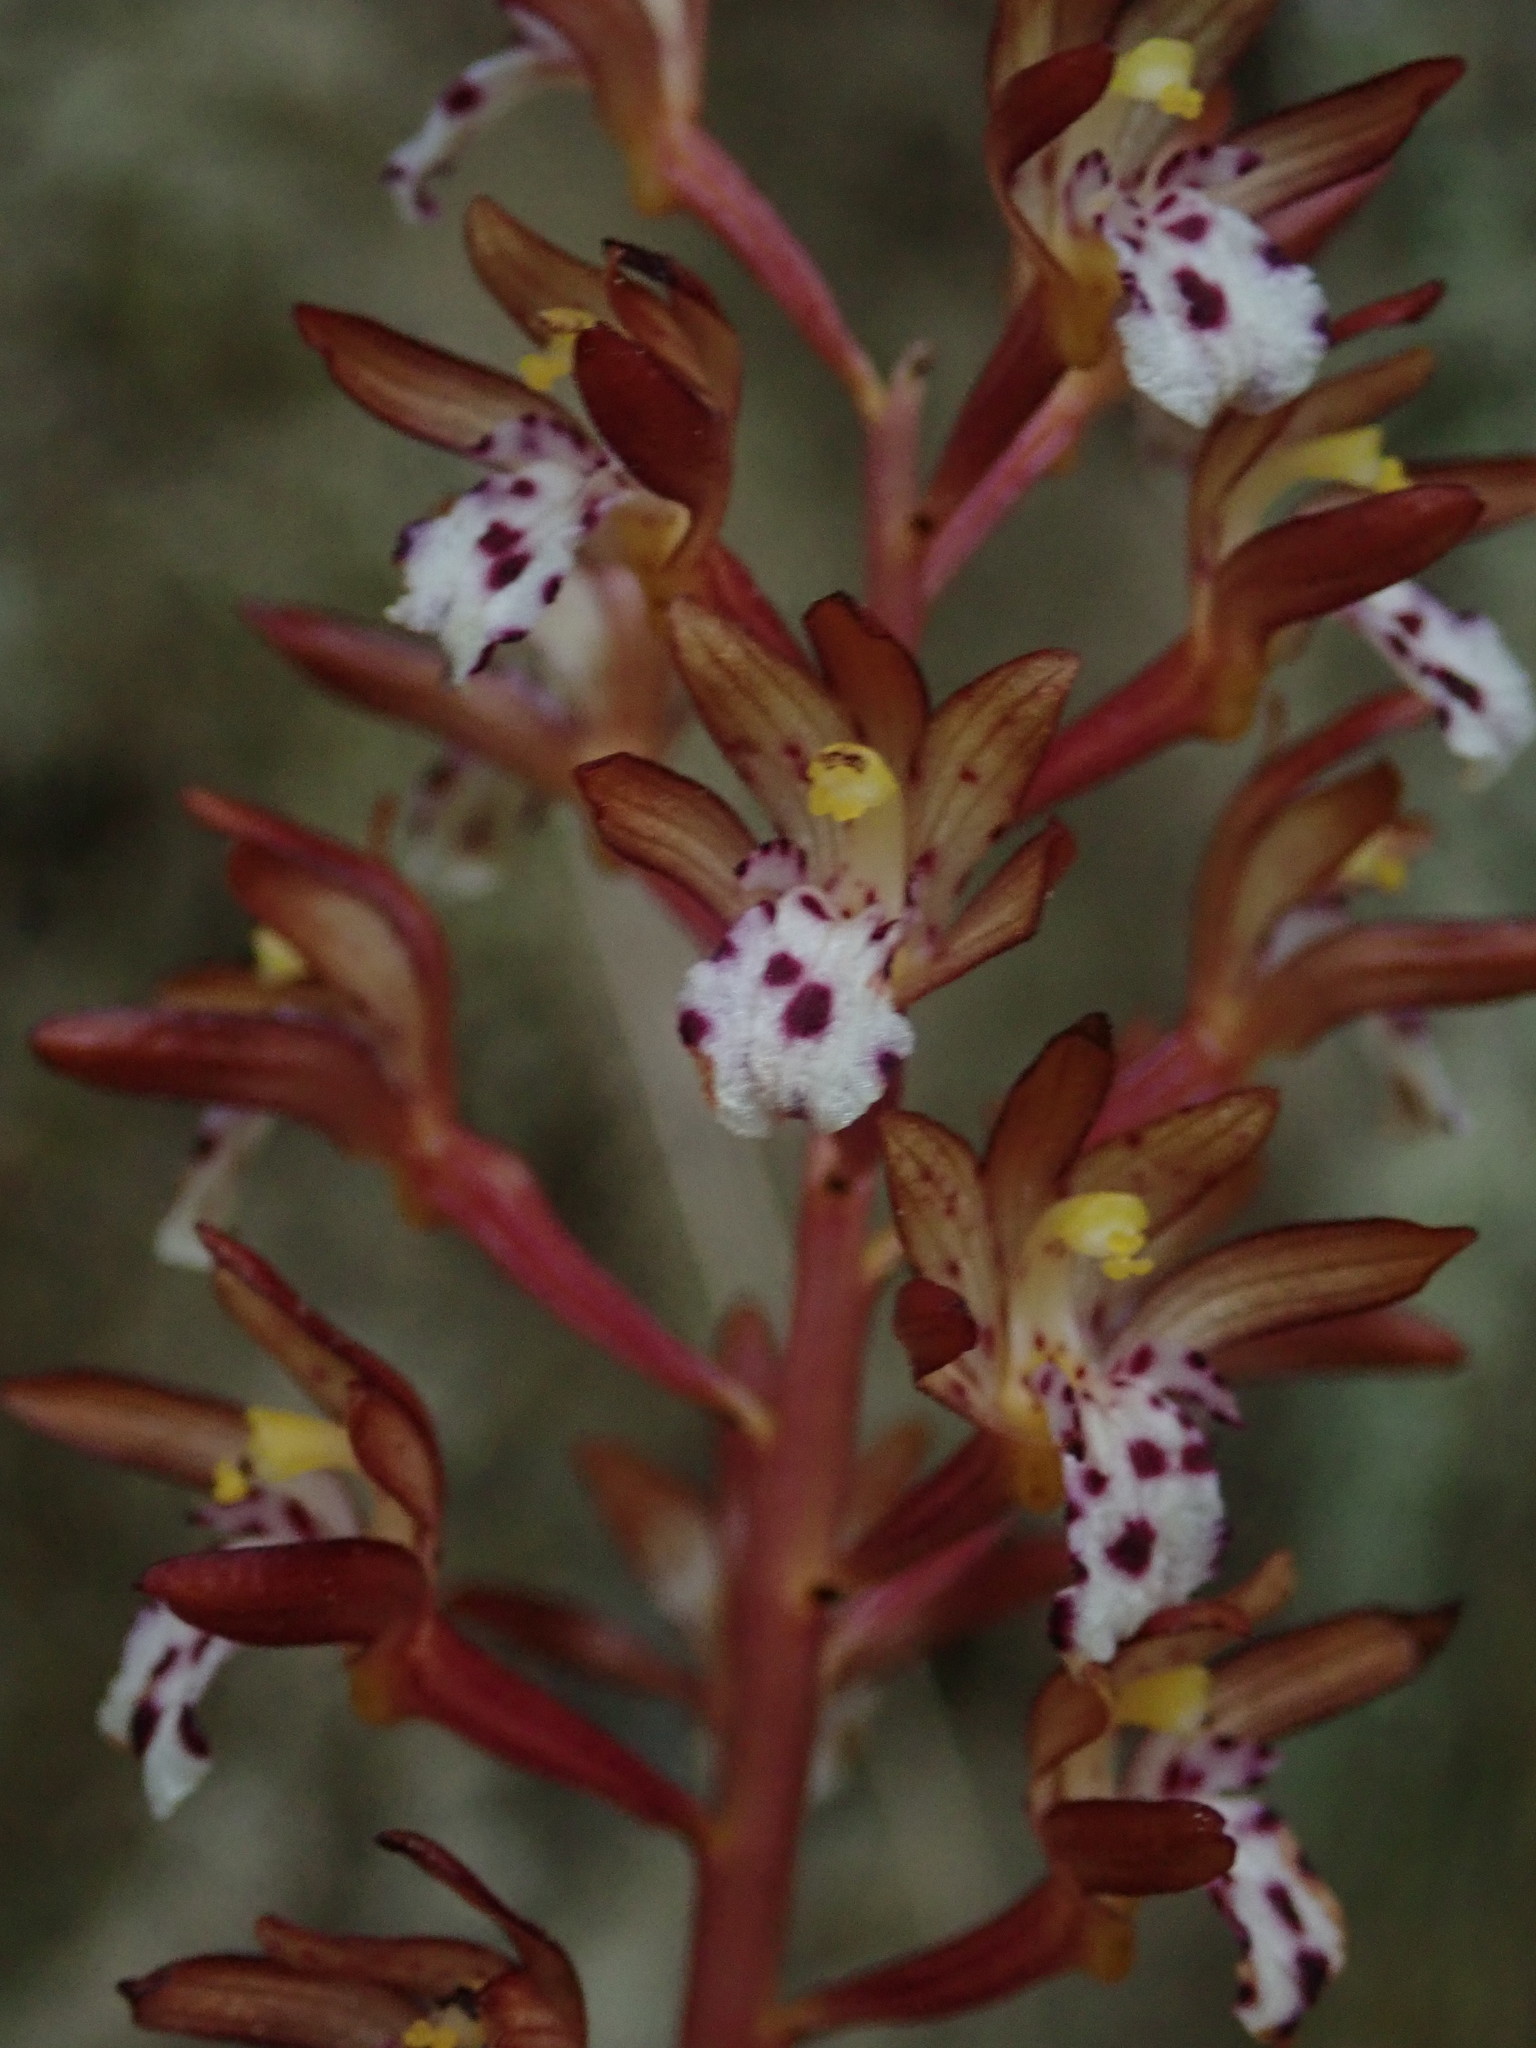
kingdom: Plantae
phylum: Tracheophyta
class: Liliopsida
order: Asparagales
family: Orchidaceae
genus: Corallorhiza
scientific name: Corallorhiza maculata
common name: Spotted coralroot
